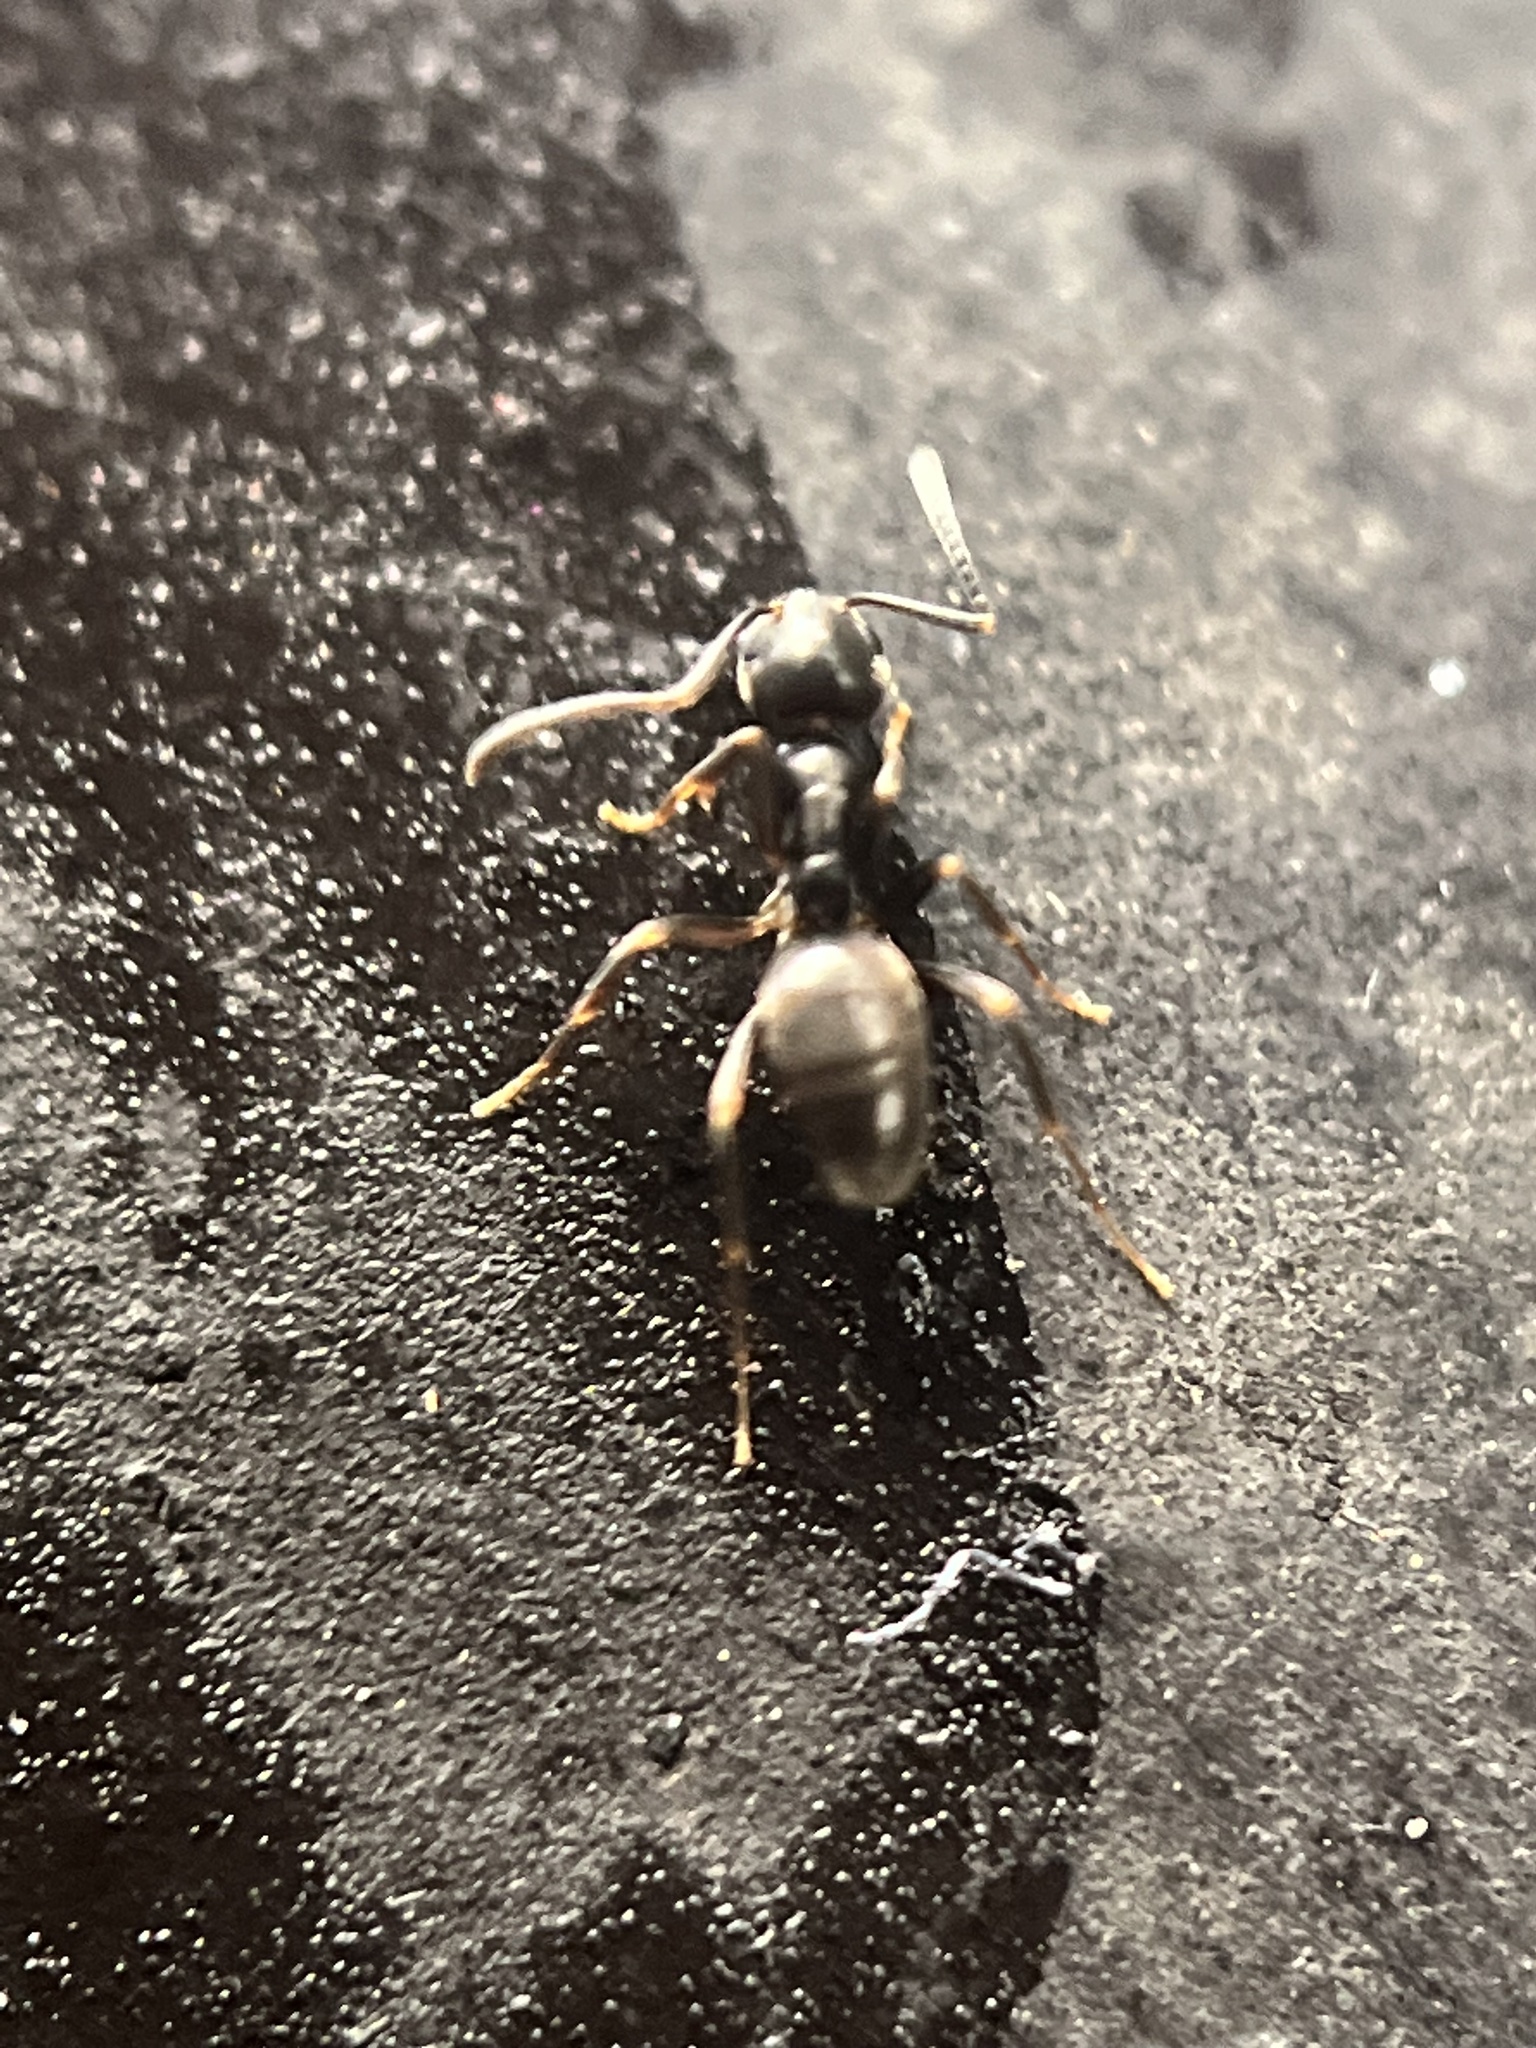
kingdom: Animalia
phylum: Arthropoda
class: Insecta
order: Hymenoptera
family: Formicidae
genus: Tapinoma
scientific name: Tapinoma sessile
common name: Odorous house ant
